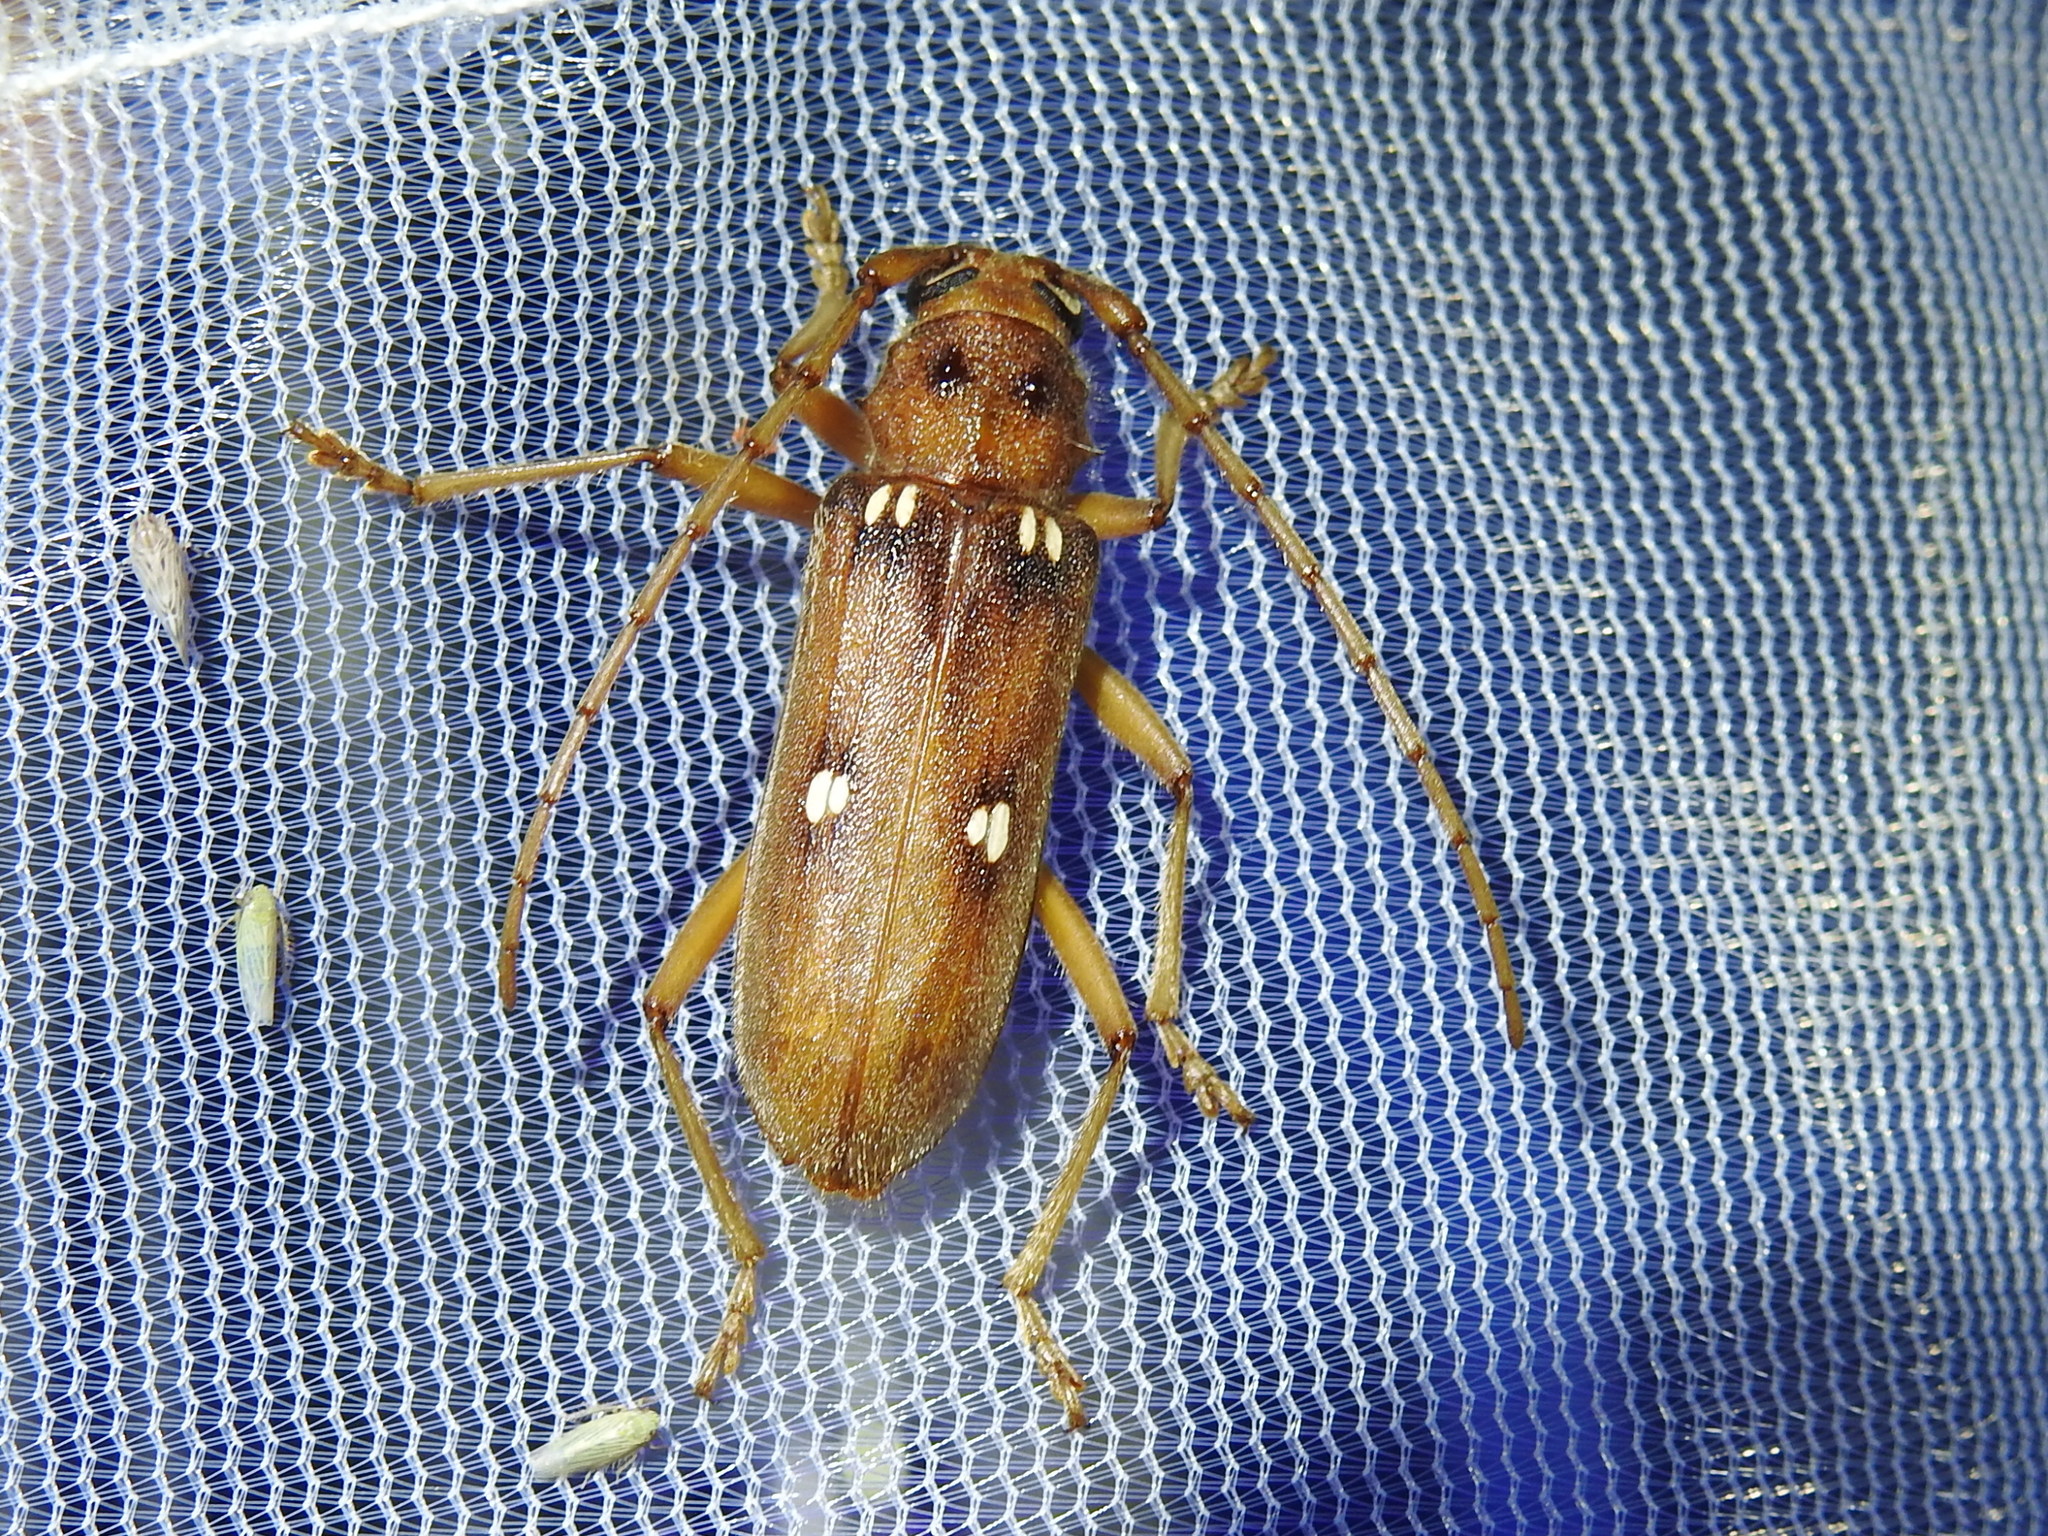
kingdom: Animalia
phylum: Arthropoda
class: Insecta
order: Coleoptera
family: Cerambycidae
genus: Eburia
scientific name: Eburia haldemani
